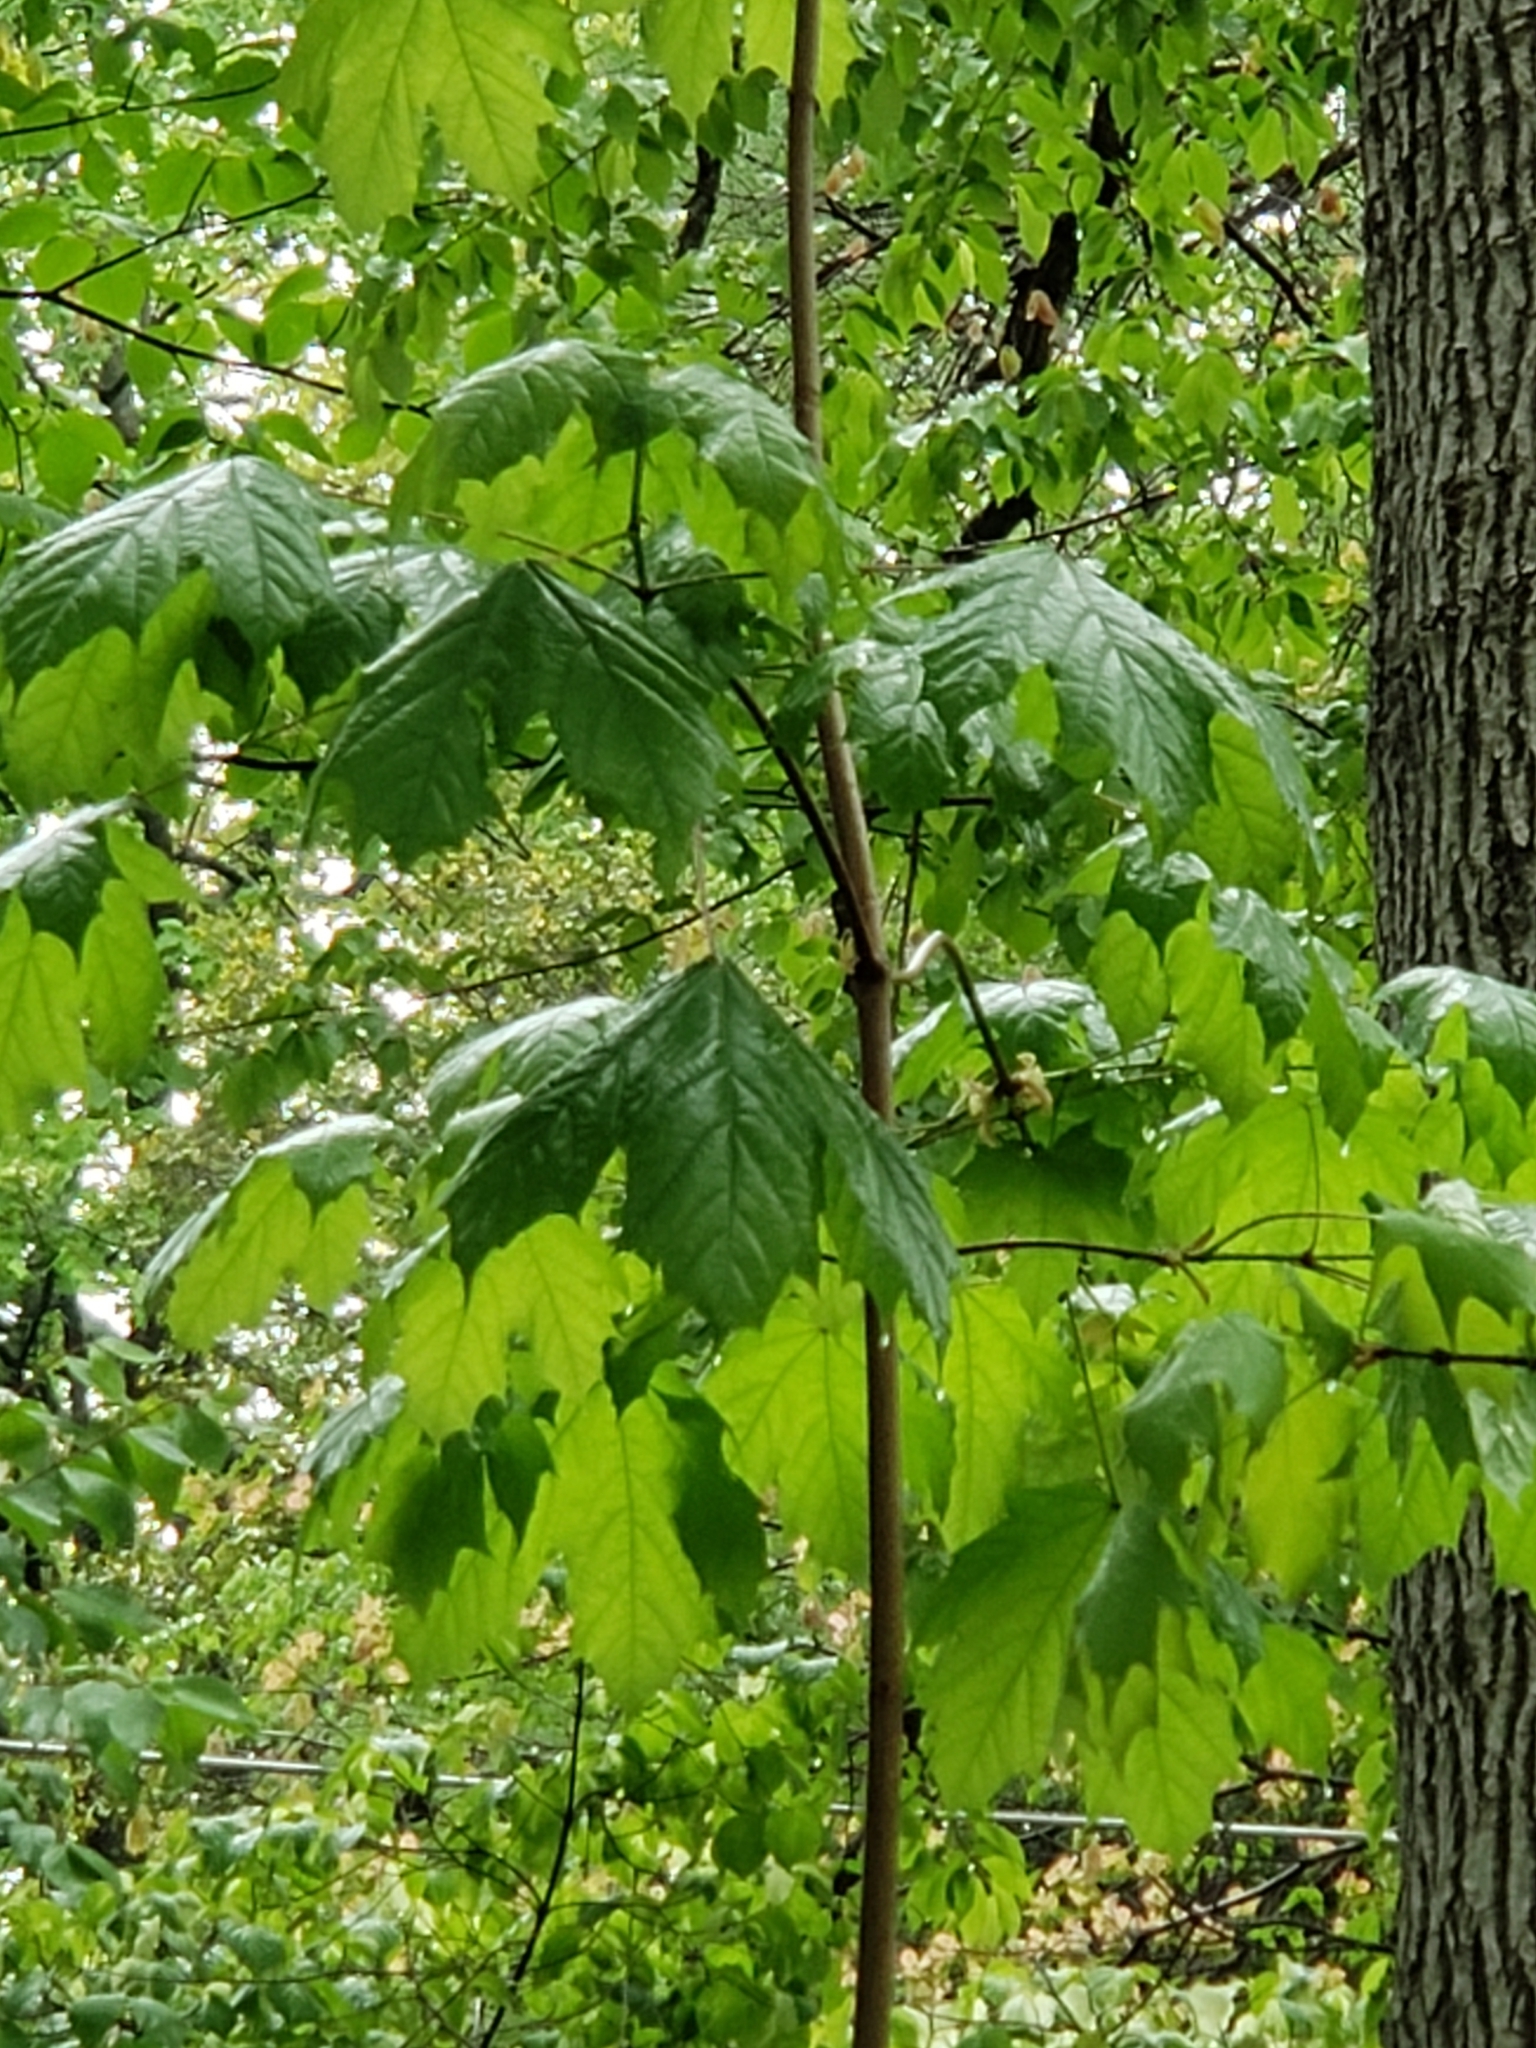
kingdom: Plantae
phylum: Tracheophyta
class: Magnoliopsida
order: Sapindales
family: Sapindaceae
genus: Acer
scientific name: Acer platanoides
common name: Norway maple
